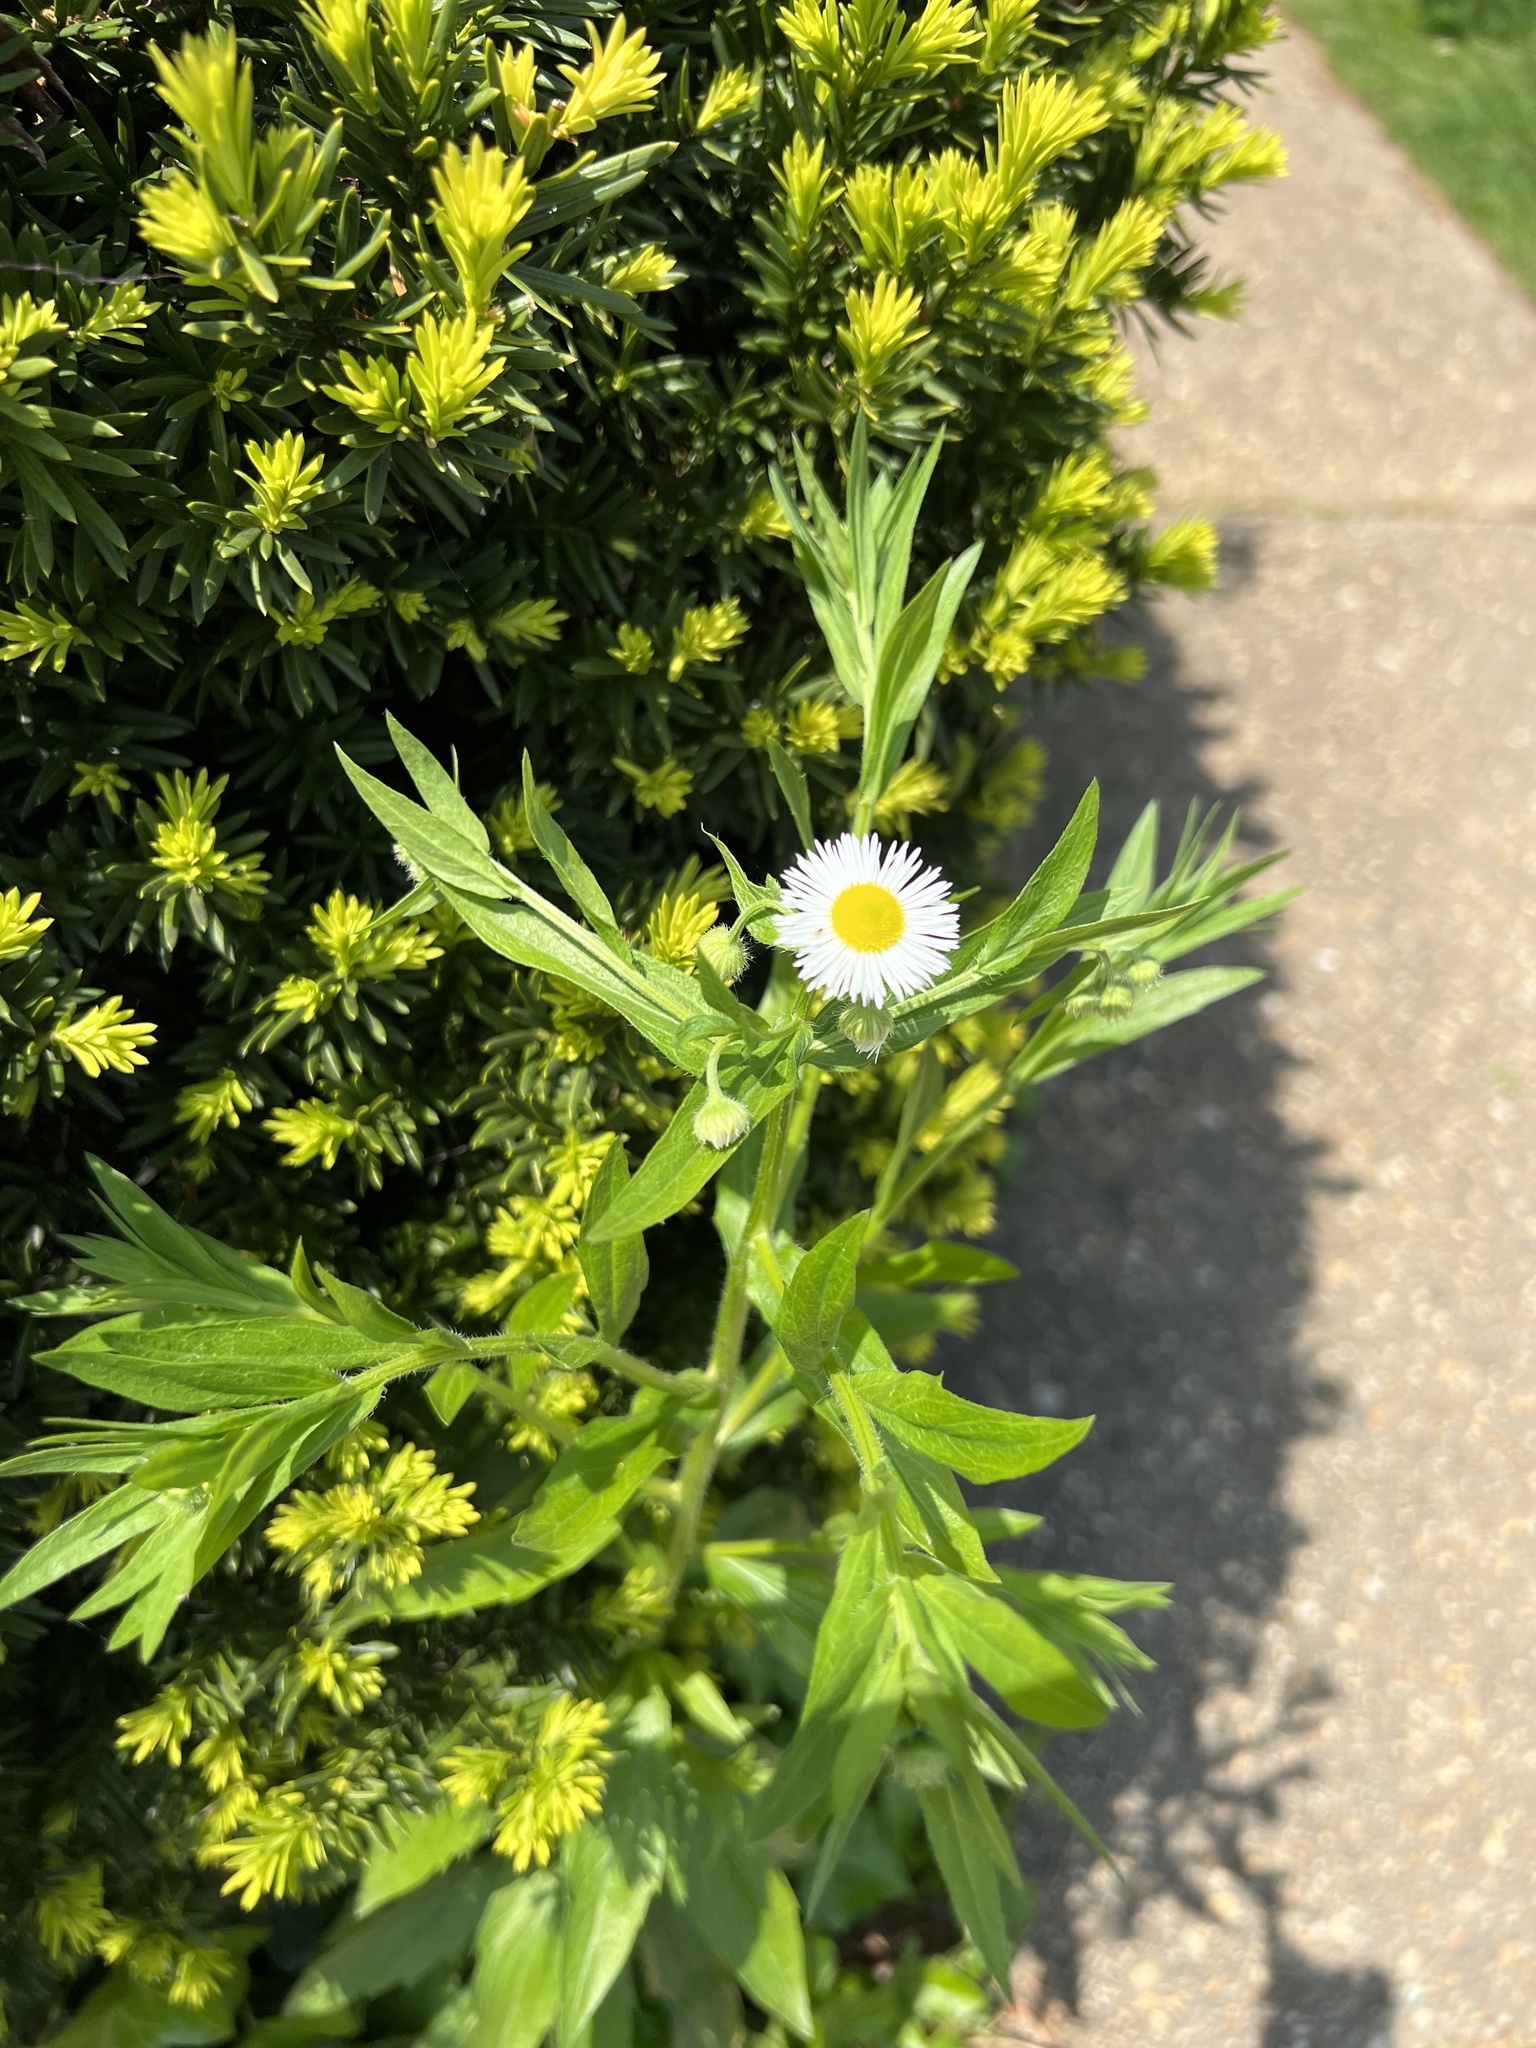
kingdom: Plantae
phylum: Tracheophyta
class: Magnoliopsida
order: Asterales
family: Asteraceae
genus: Erigeron
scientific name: Erigeron annuus
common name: Tall fleabane
